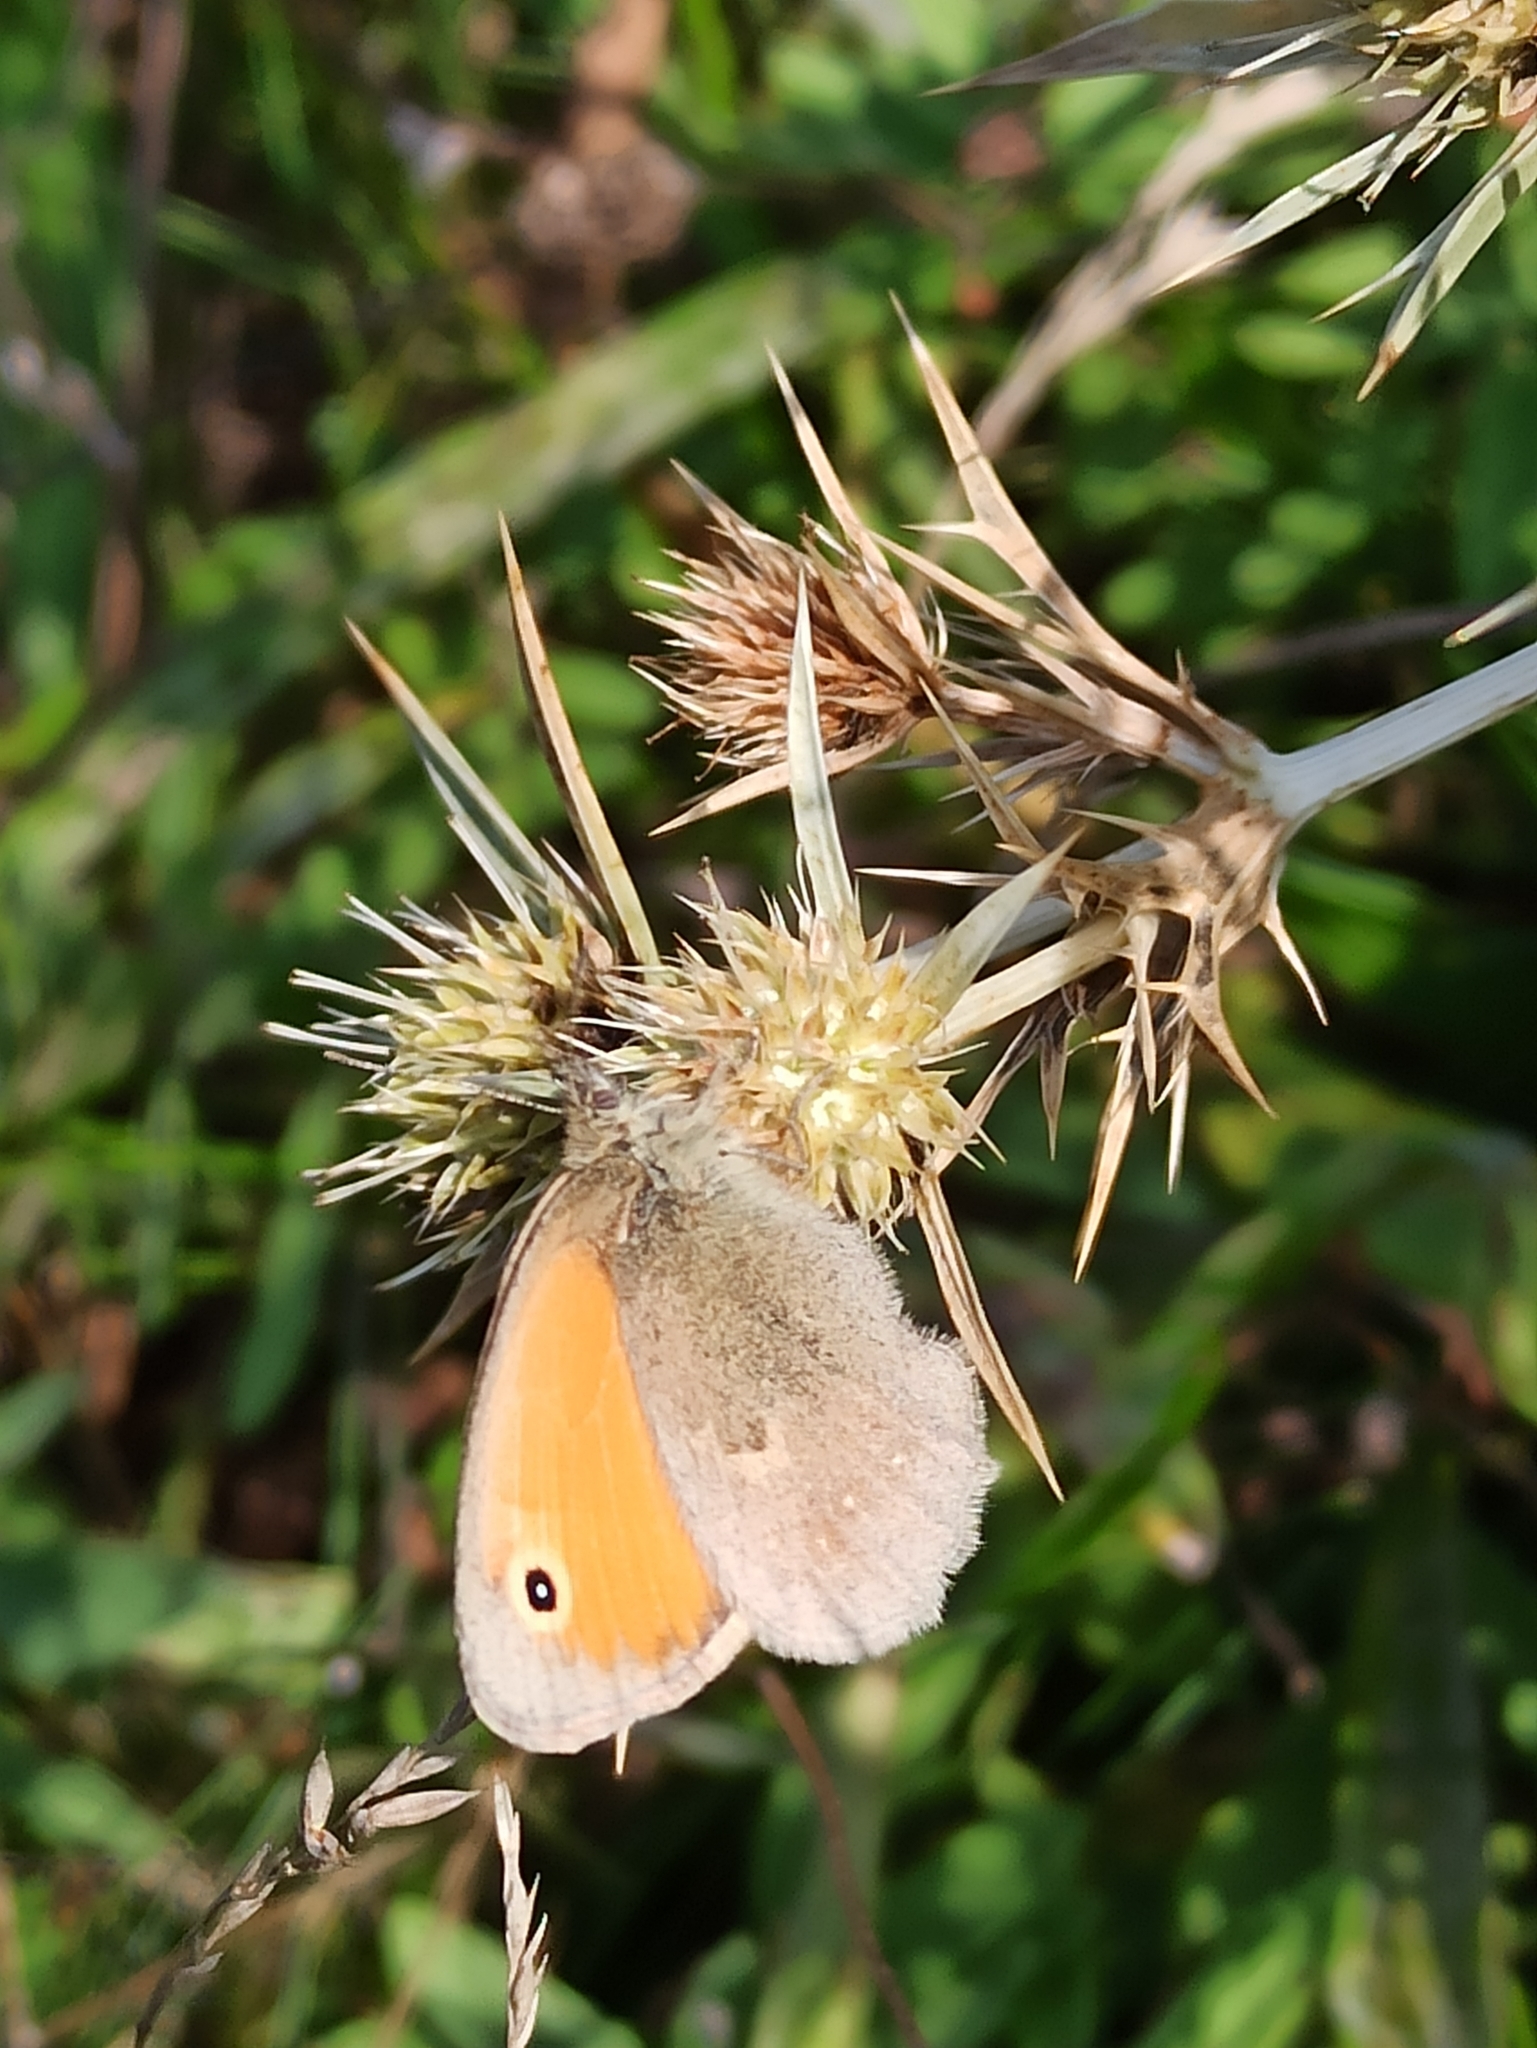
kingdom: Animalia
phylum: Arthropoda
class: Insecta
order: Lepidoptera
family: Nymphalidae
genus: Coenonympha
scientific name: Coenonympha pamphilus
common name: Small heath
